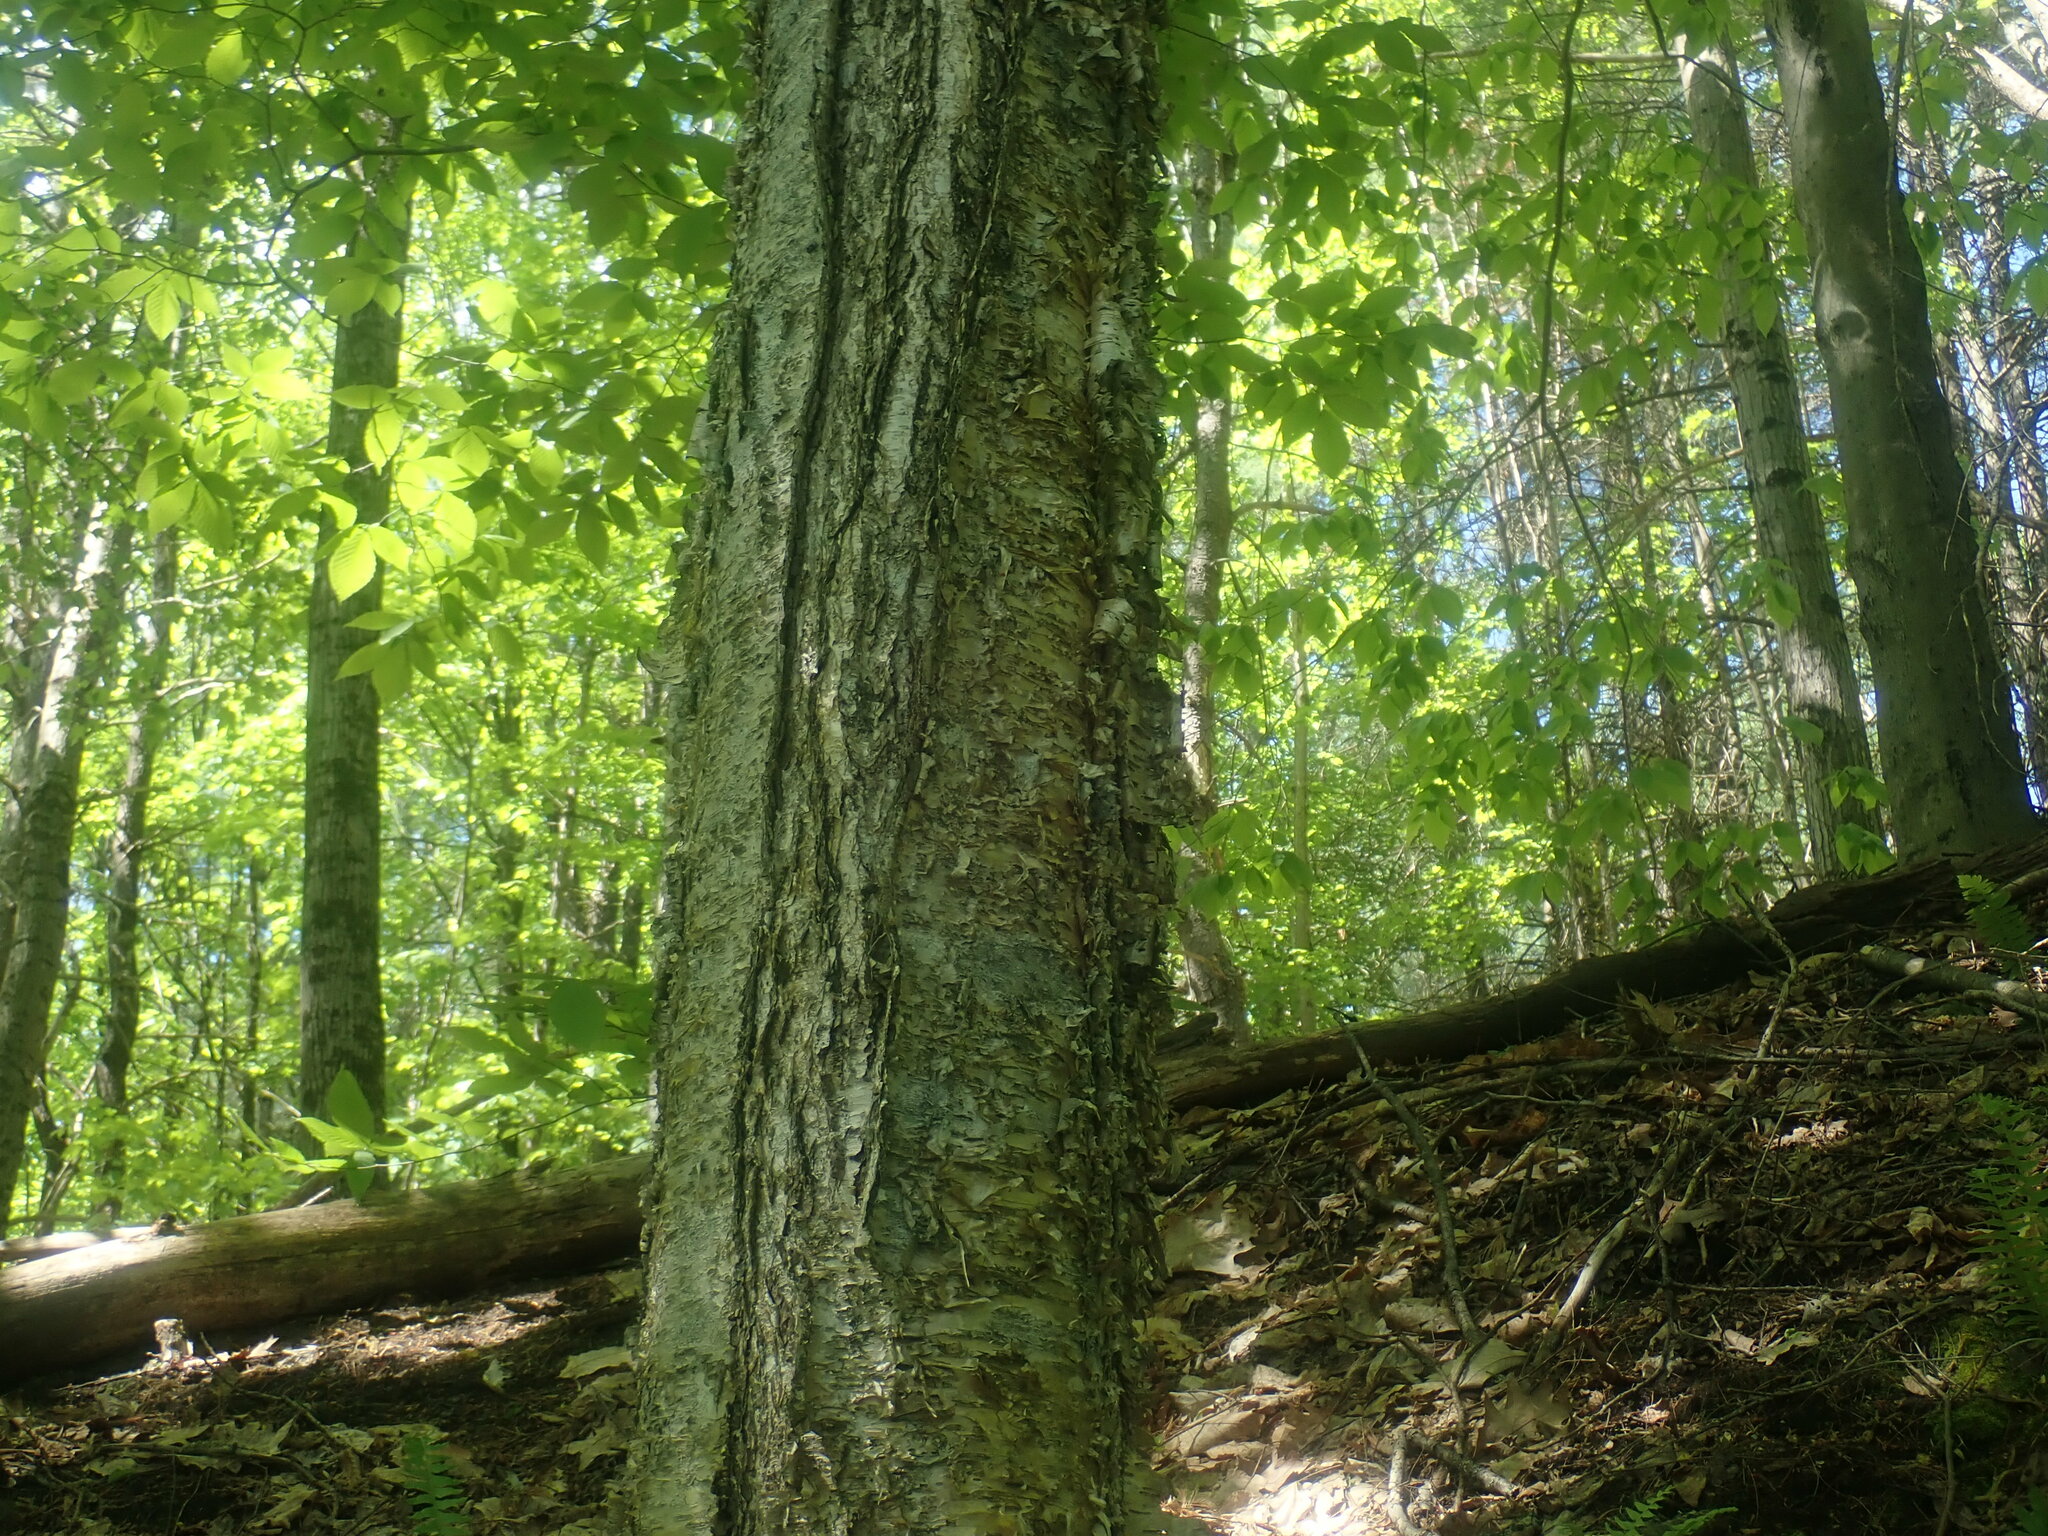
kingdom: Plantae
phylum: Tracheophyta
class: Magnoliopsida
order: Fagales
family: Betulaceae
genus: Betula
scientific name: Betula alleghaniensis
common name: Yellow birch
